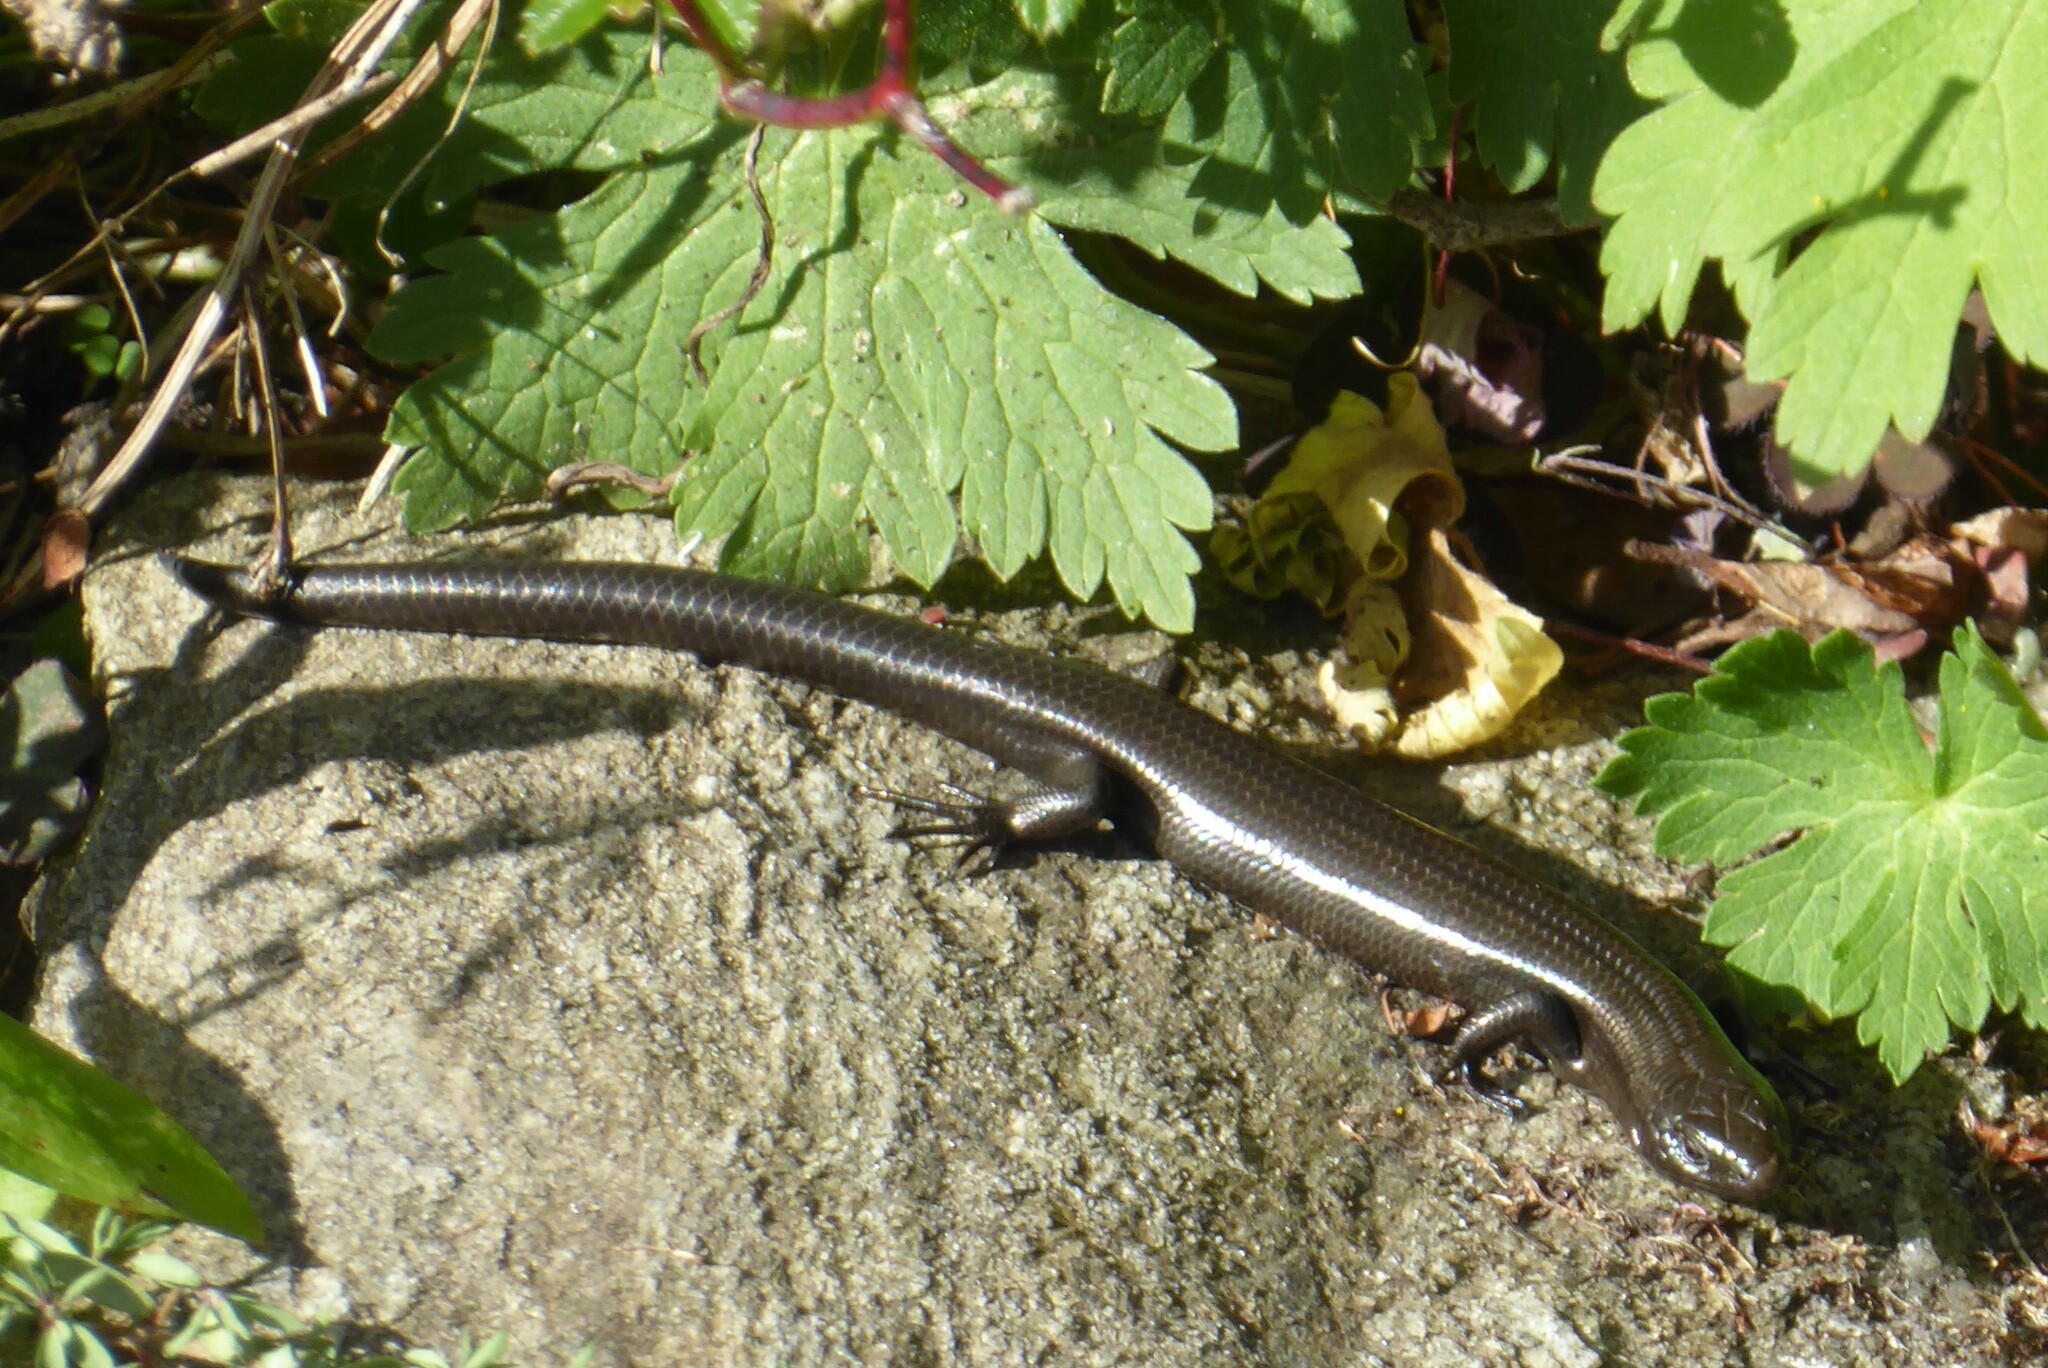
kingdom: Animalia
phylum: Chordata
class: Squamata
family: Scincidae
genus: Oligosoma
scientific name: Oligosoma polychroma
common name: Common new zealand skink
